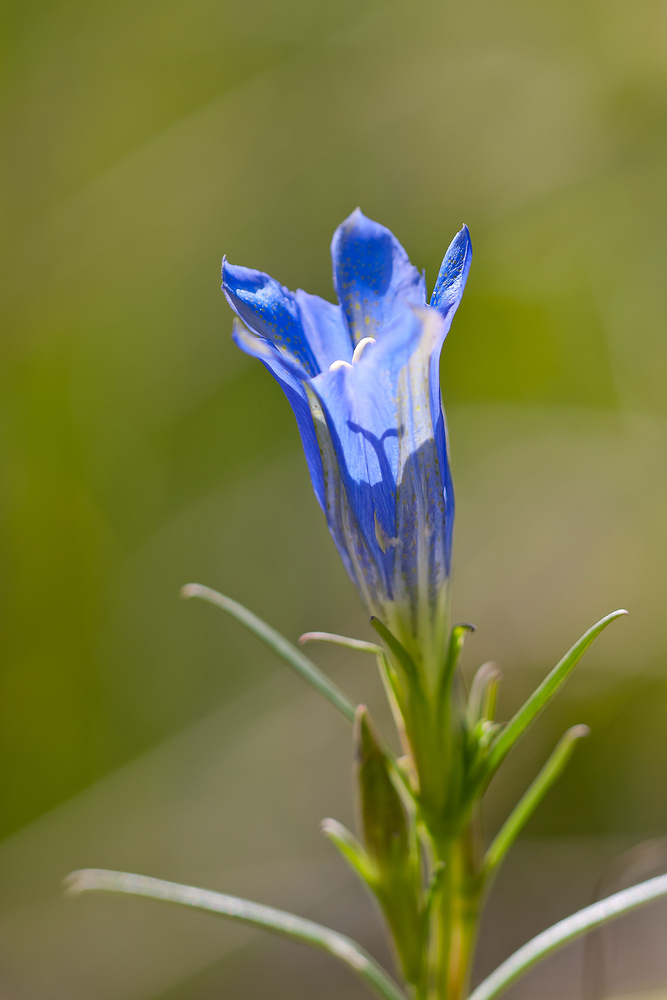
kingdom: Plantae
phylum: Tracheophyta
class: Magnoliopsida
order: Gentianales
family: Gentianaceae
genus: Gentiana
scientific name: Gentiana pneumonanthe
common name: Marsh gentian
